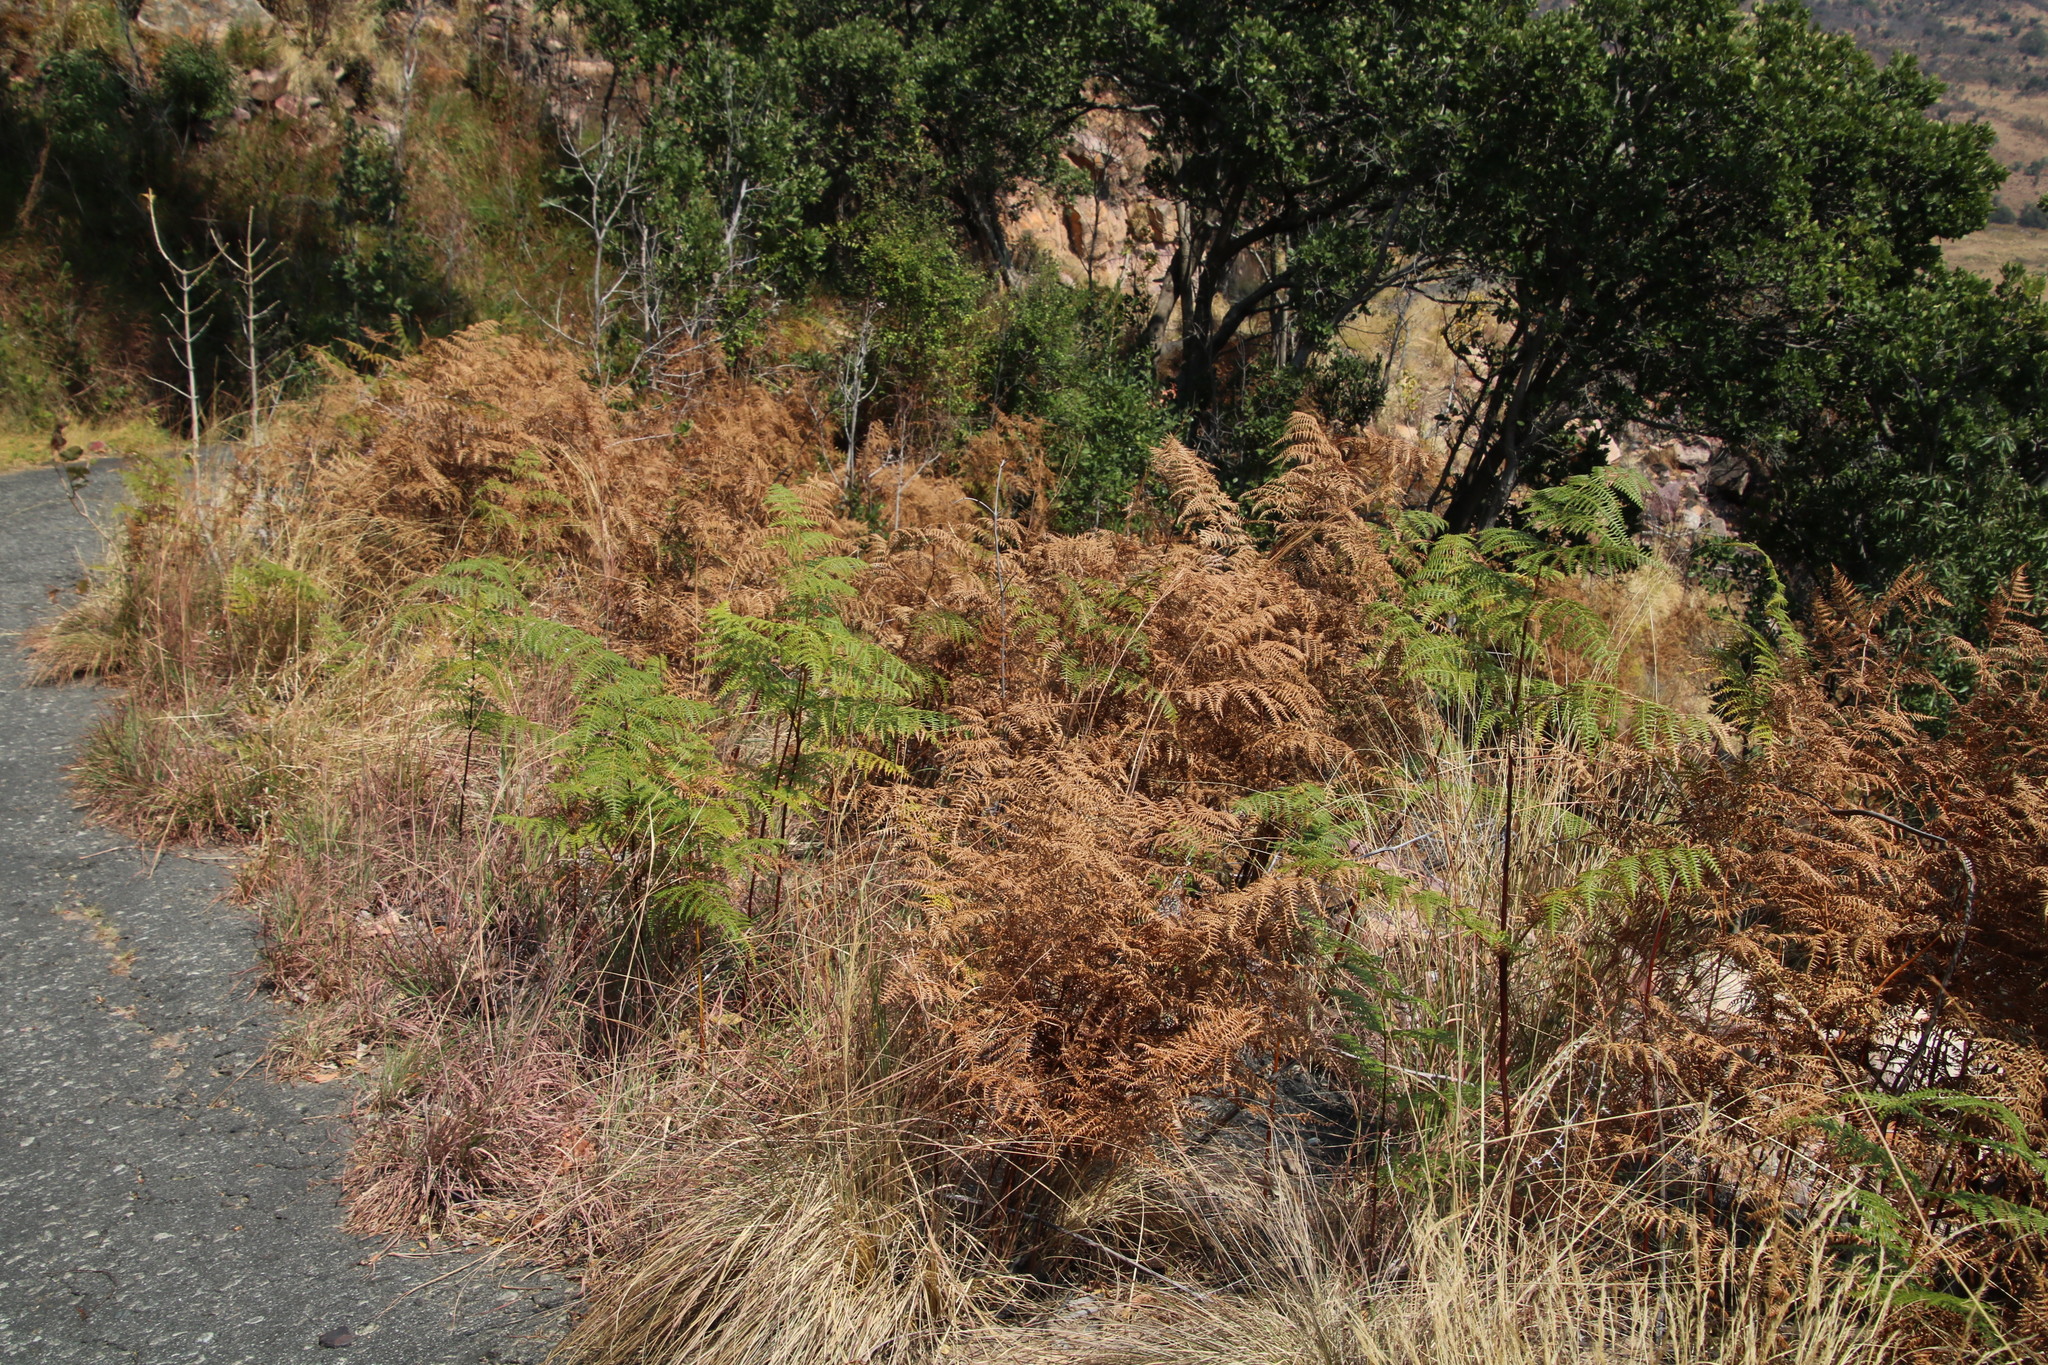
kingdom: Plantae
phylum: Tracheophyta
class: Polypodiopsida
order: Polypodiales
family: Dennstaedtiaceae
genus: Pteridium
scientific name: Pteridium aquilinum
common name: Bracken
